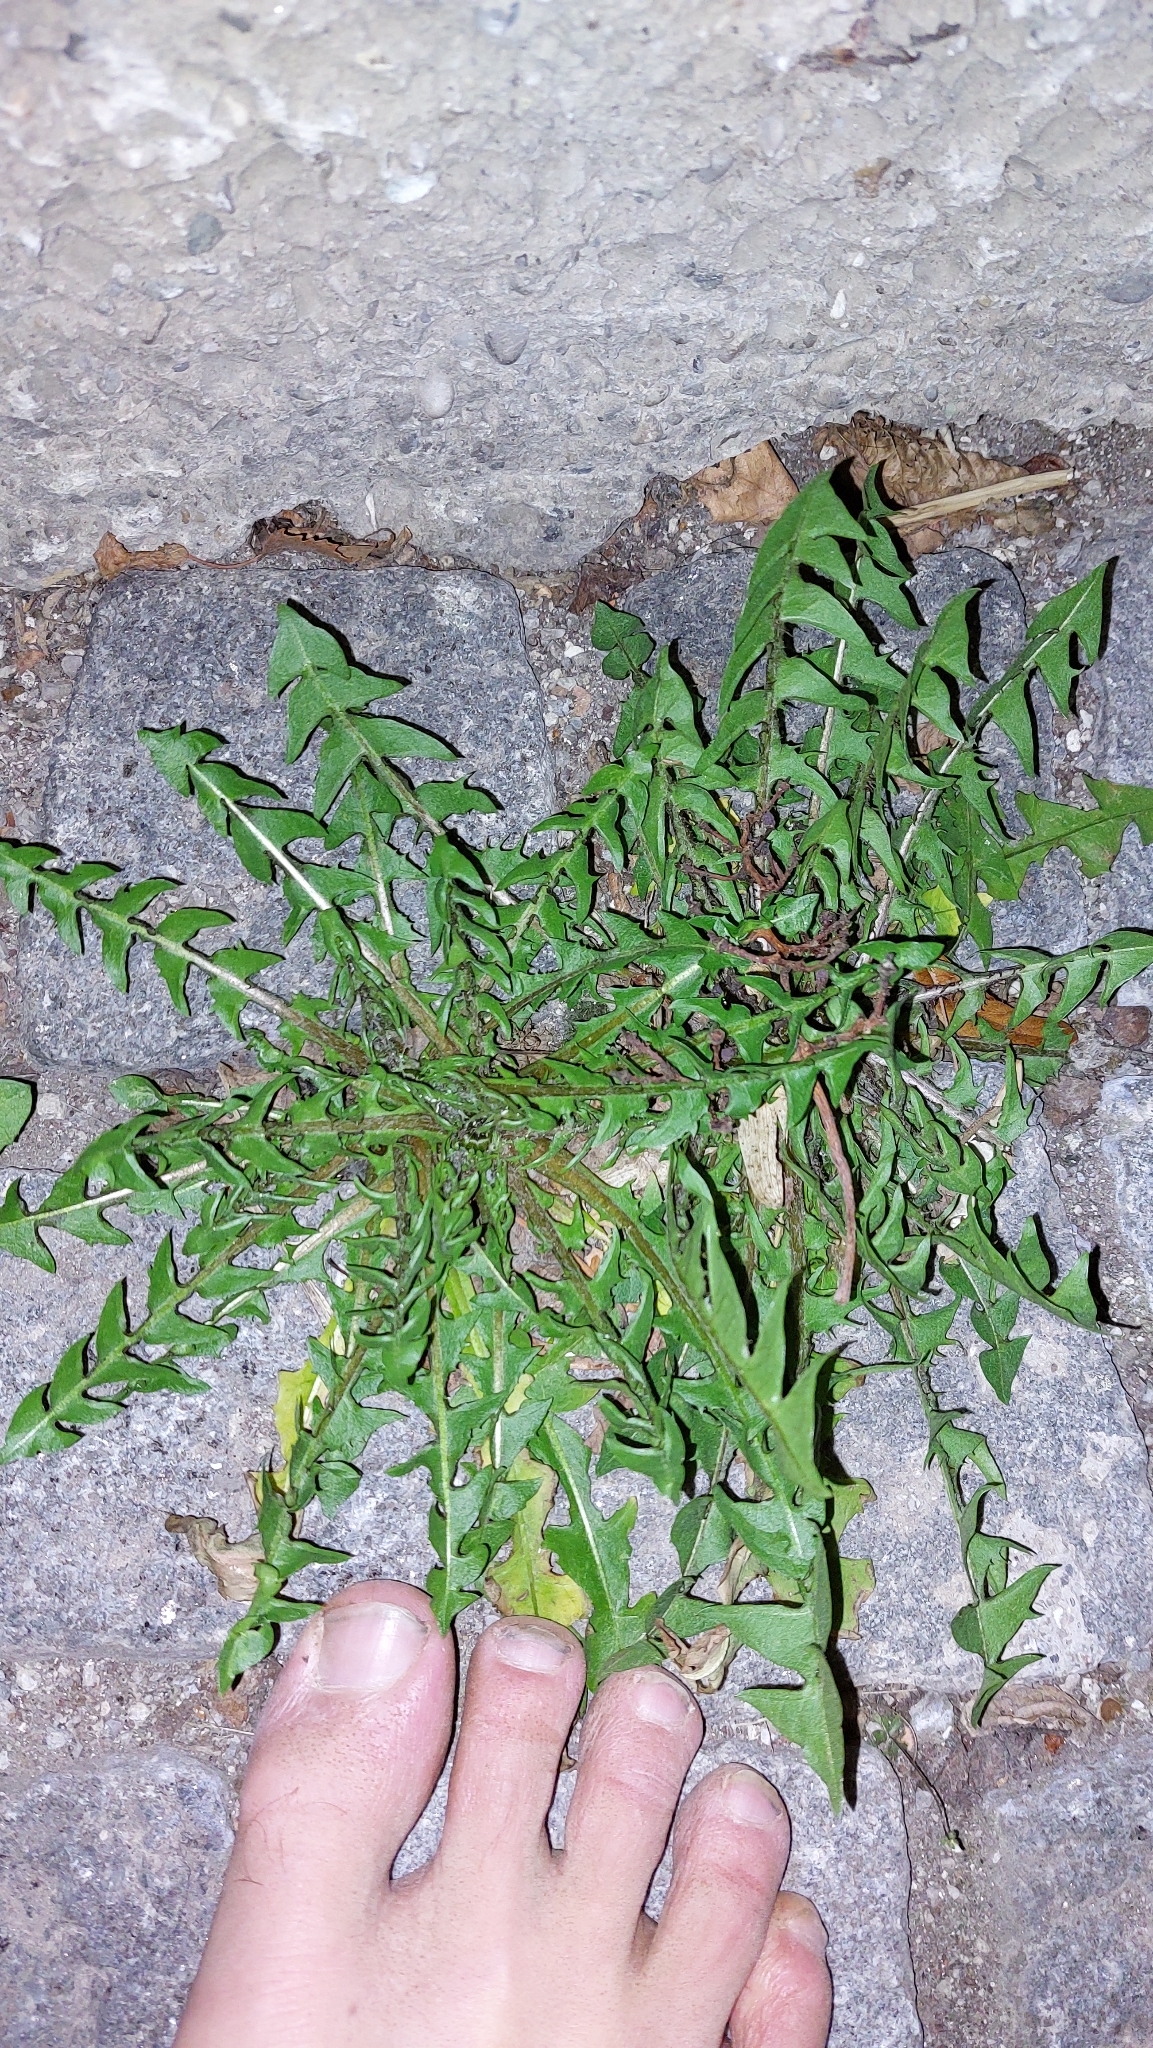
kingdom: Plantae
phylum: Tracheophyta
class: Magnoliopsida
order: Asterales
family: Asteraceae
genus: Taraxacum
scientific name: Taraxacum
